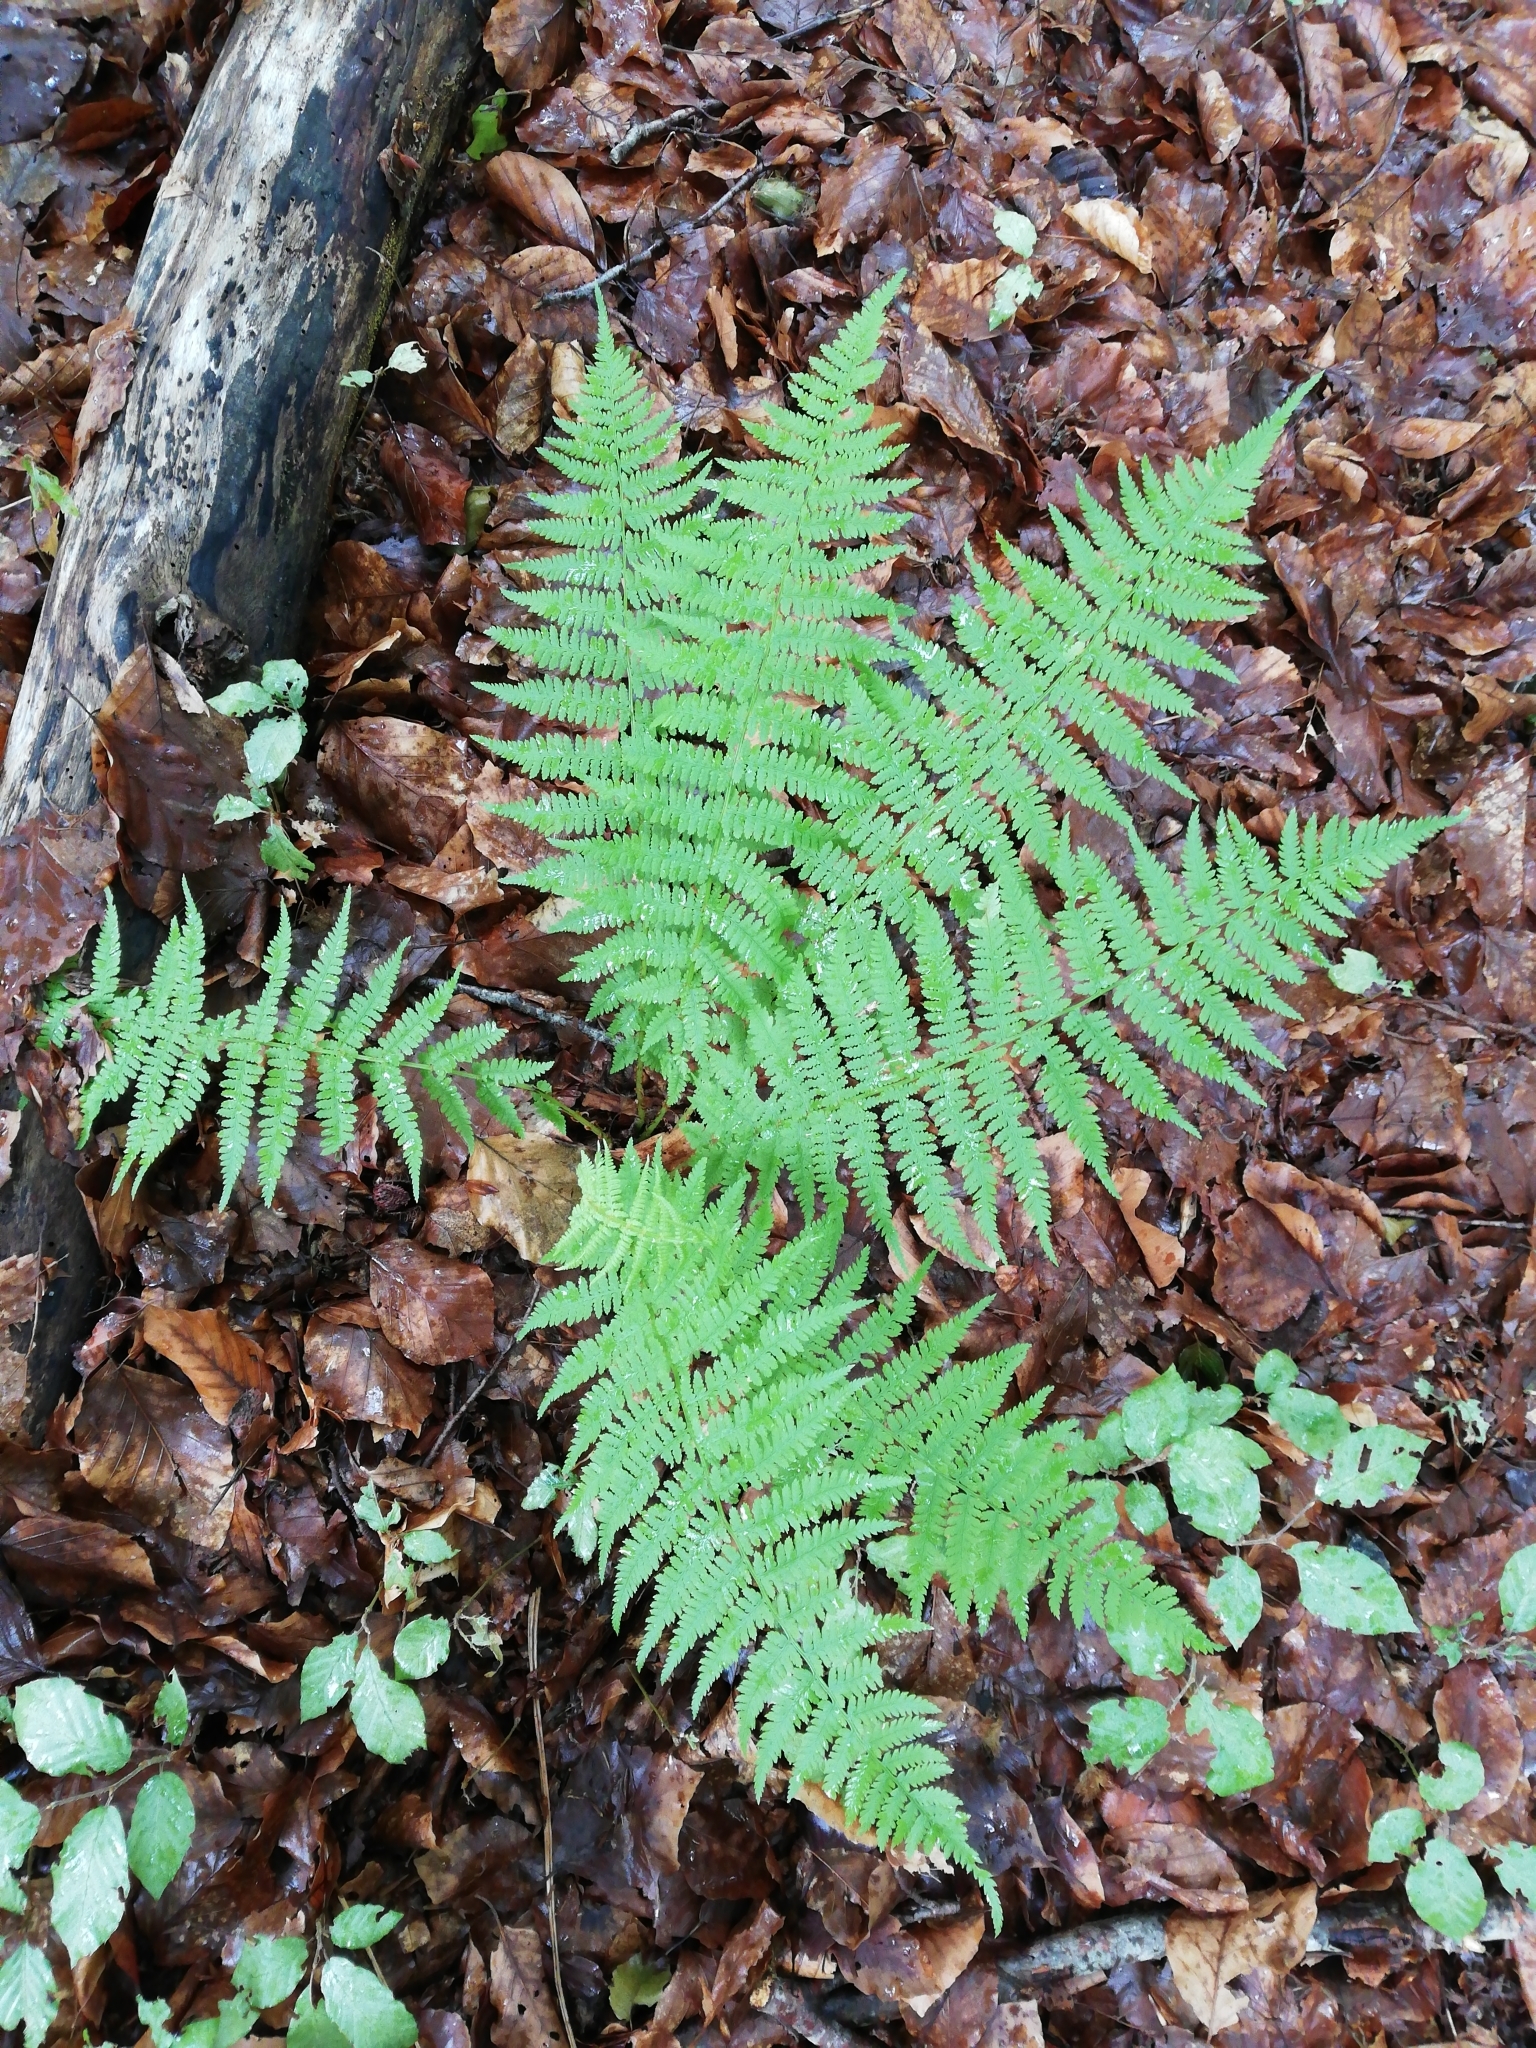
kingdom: Plantae
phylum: Tracheophyta
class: Polypodiopsida
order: Polypodiales
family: Athyriaceae
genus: Athyrium
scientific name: Athyrium filix-femina
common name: Lady fern
